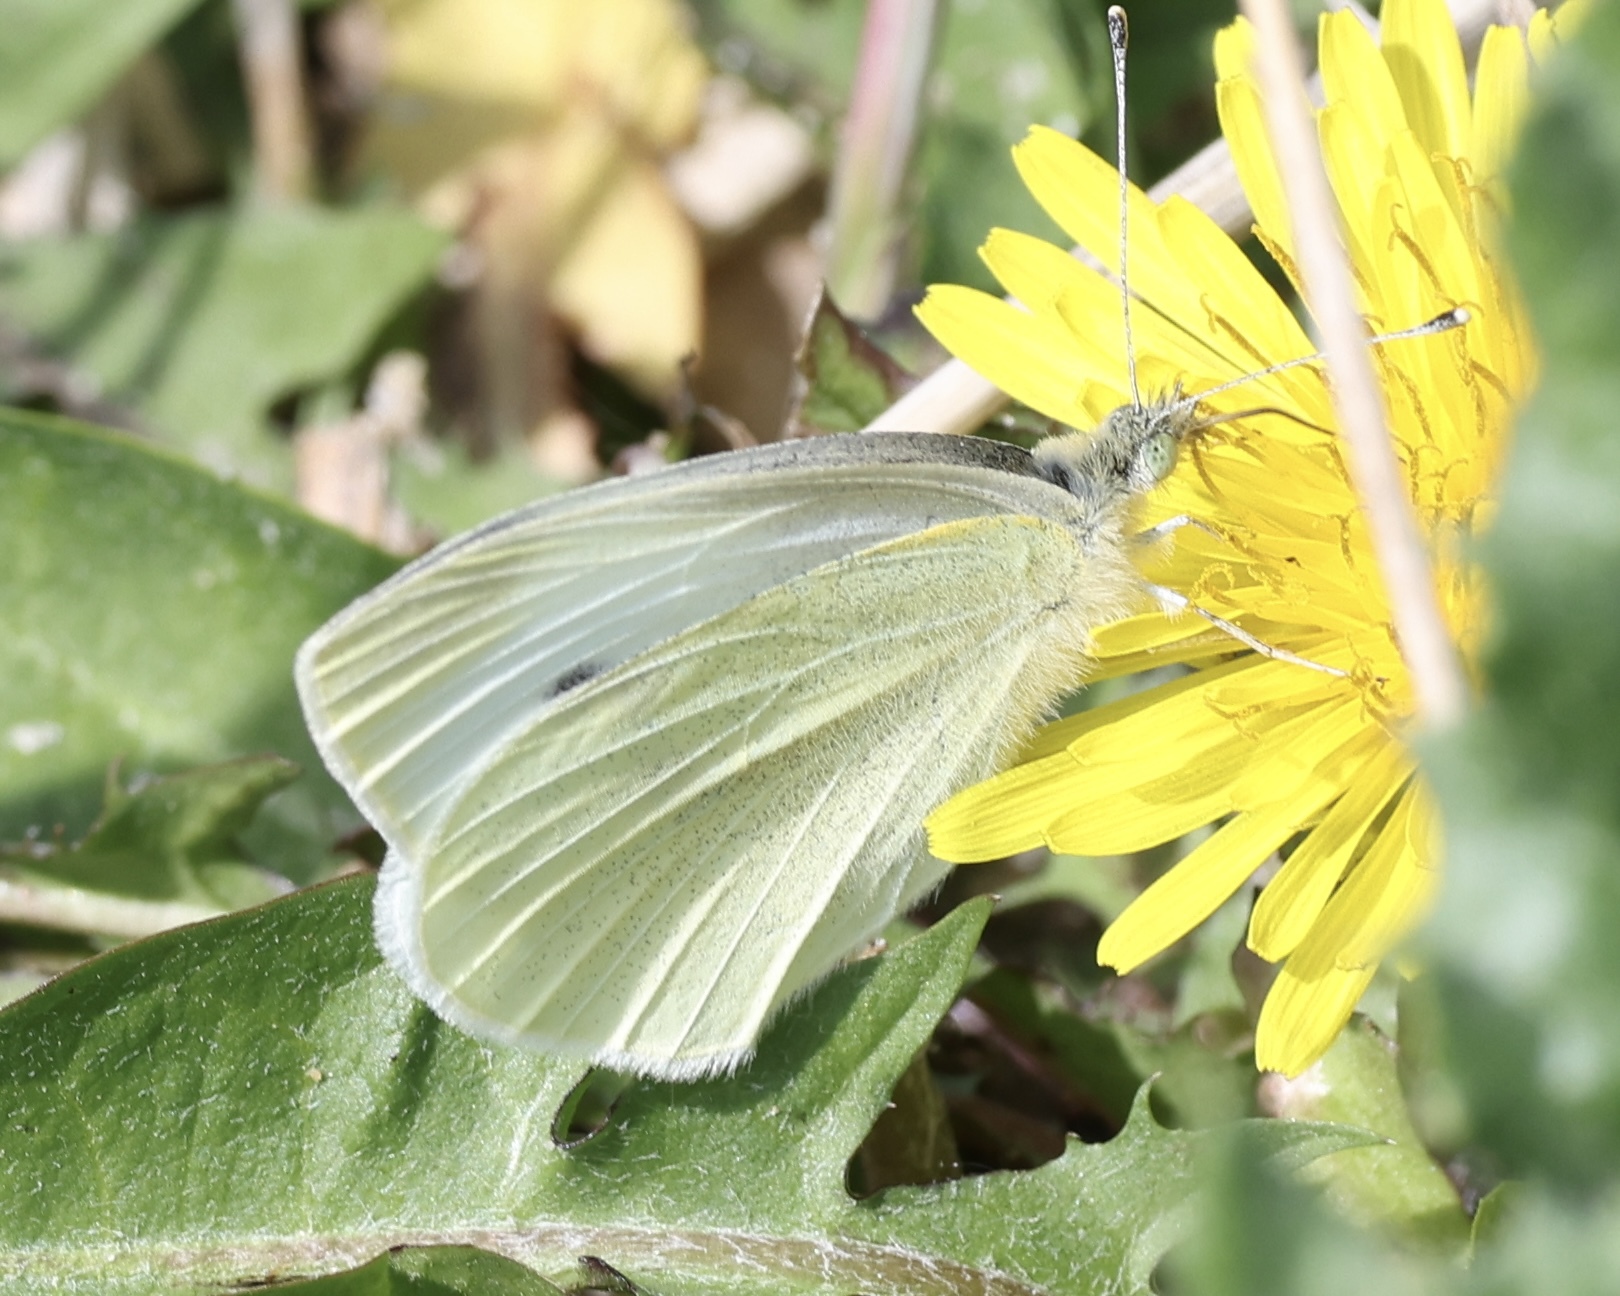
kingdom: Animalia
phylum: Arthropoda
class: Insecta
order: Lepidoptera
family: Pieridae
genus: Pieris
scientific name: Pieris rapae
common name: Small white
